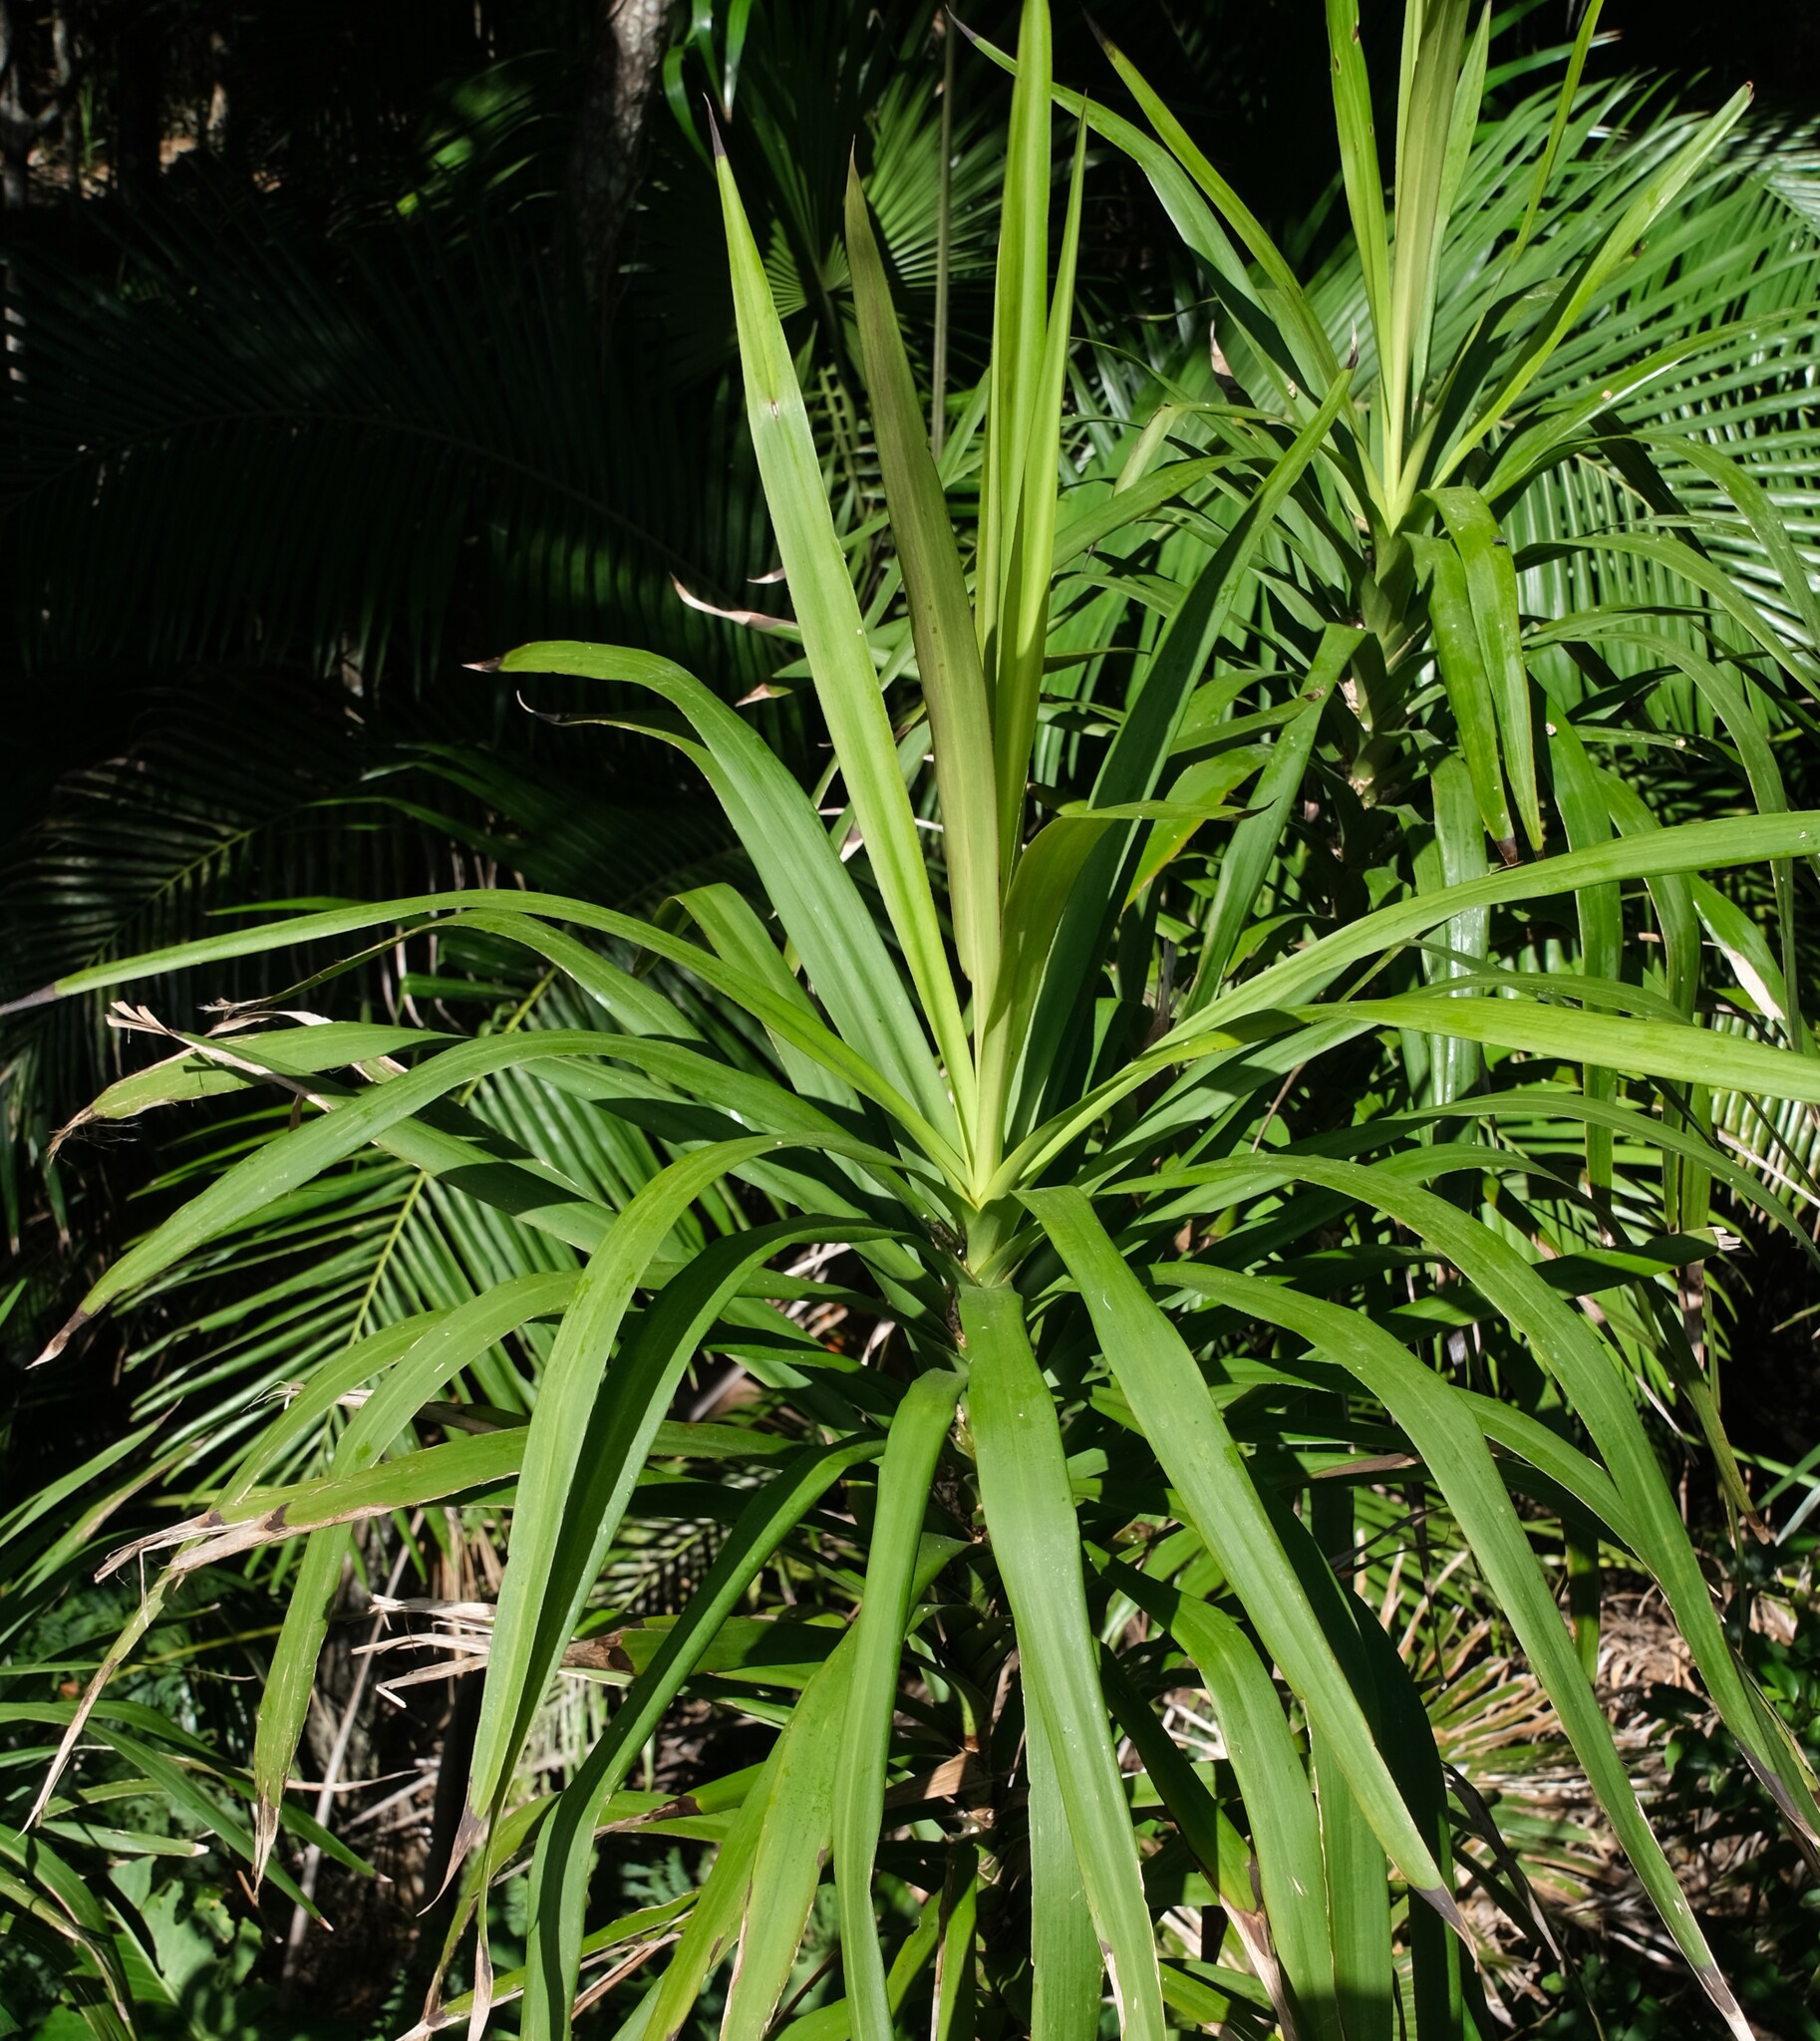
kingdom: Plantae
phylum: Tracheophyta
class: Liliopsida
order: Asparagales
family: Asparagaceae
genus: Cordyline
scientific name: Cordyline stricta
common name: Narrow-leaf palm-lily
